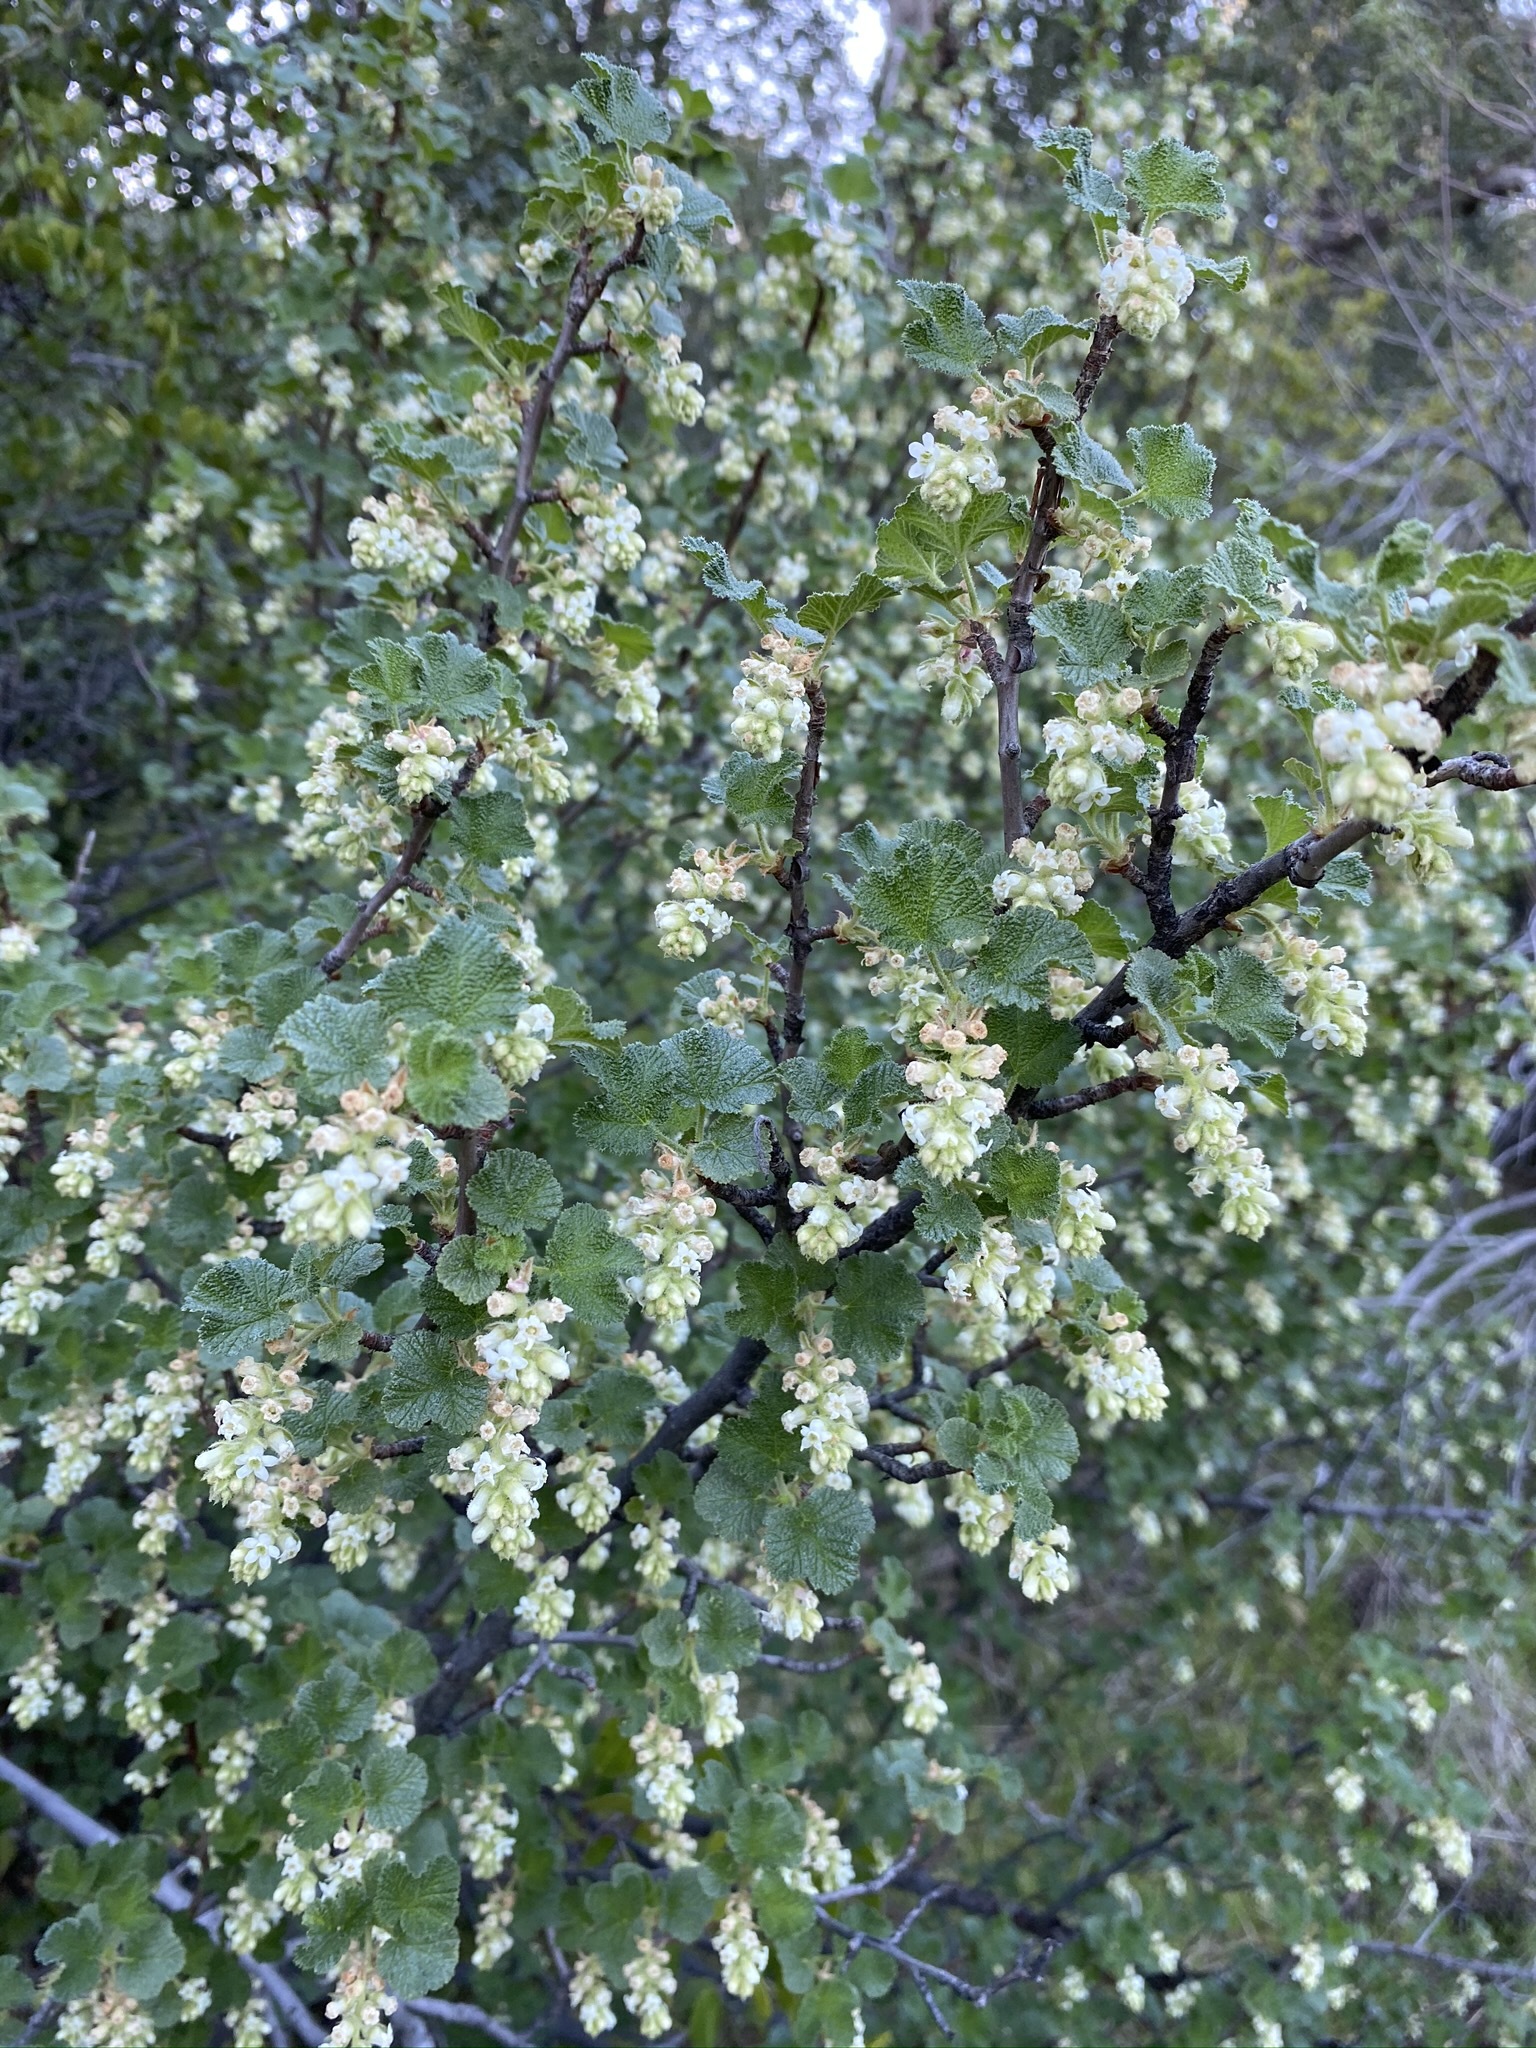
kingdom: Plantae
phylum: Tracheophyta
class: Magnoliopsida
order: Saxifragales
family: Grossulariaceae
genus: Ribes
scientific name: Ribes indecorum
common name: White-flower currant
